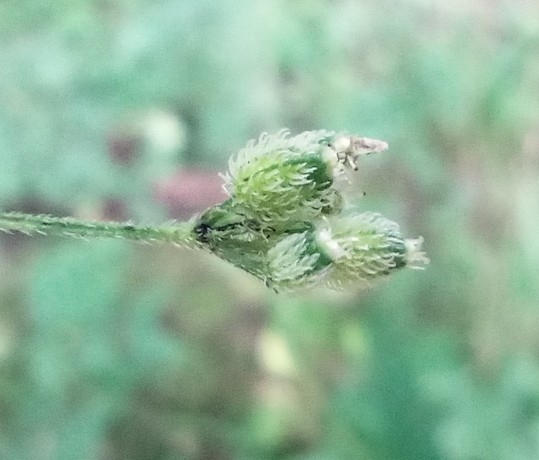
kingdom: Plantae
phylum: Tracheophyta
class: Magnoliopsida
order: Apiales
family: Apiaceae
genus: Torilis
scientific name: Torilis japonica
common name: Upright hedge-parsley
